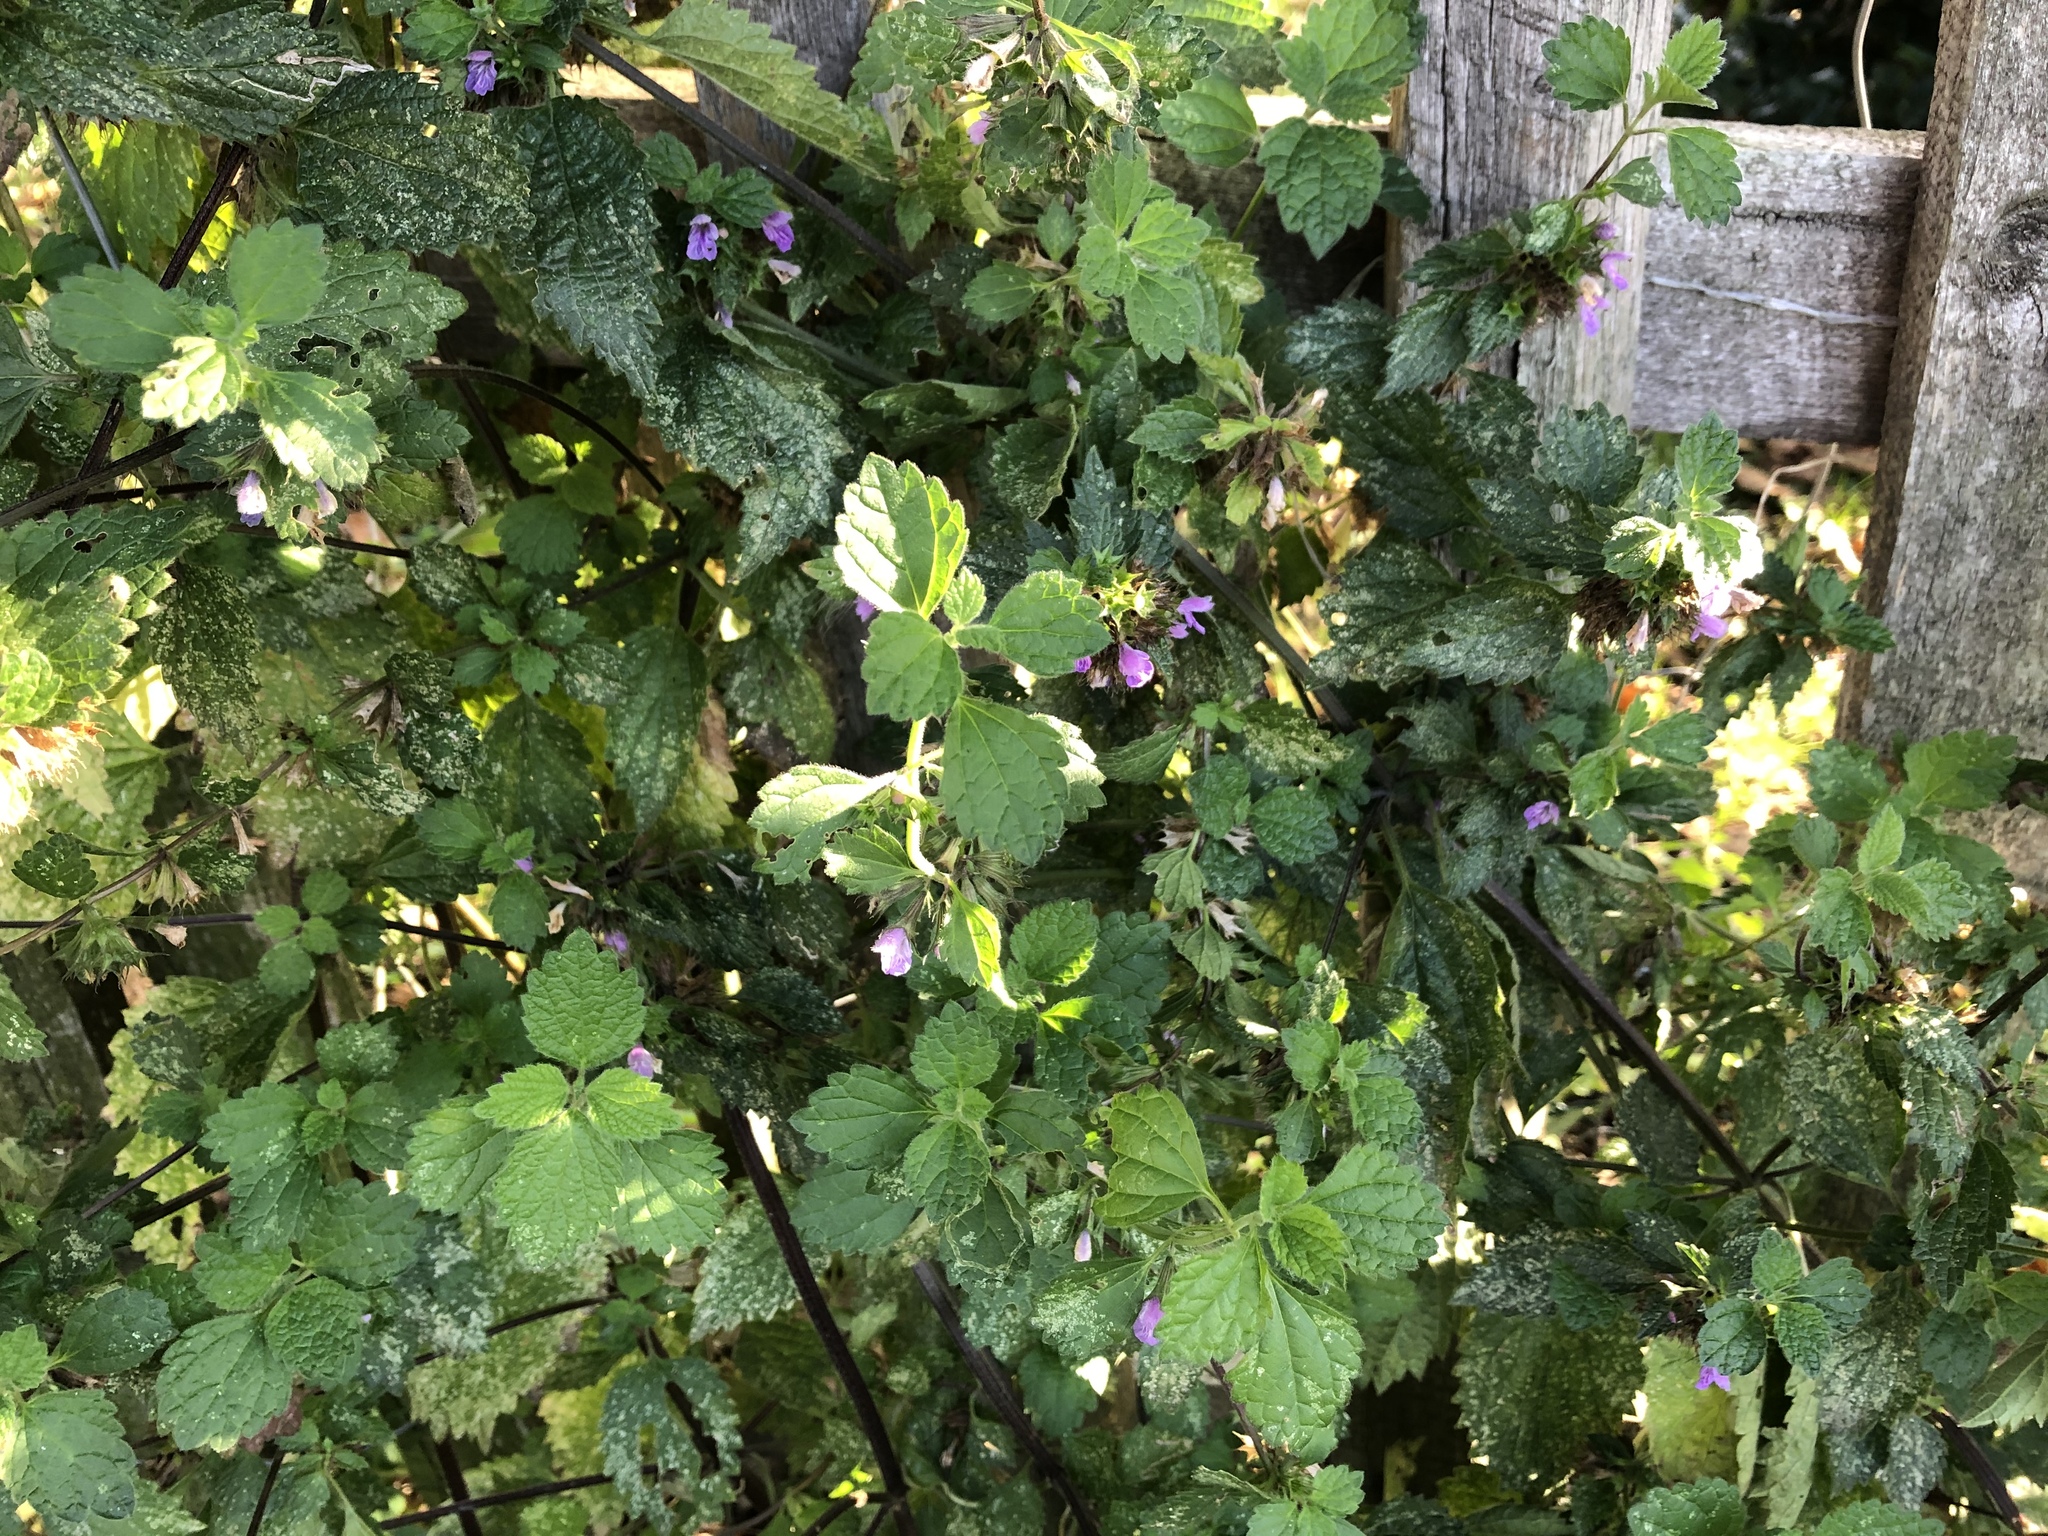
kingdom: Plantae
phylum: Tracheophyta
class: Magnoliopsida
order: Lamiales
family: Lamiaceae
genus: Ballota
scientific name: Ballota nigra
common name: Black horehound
